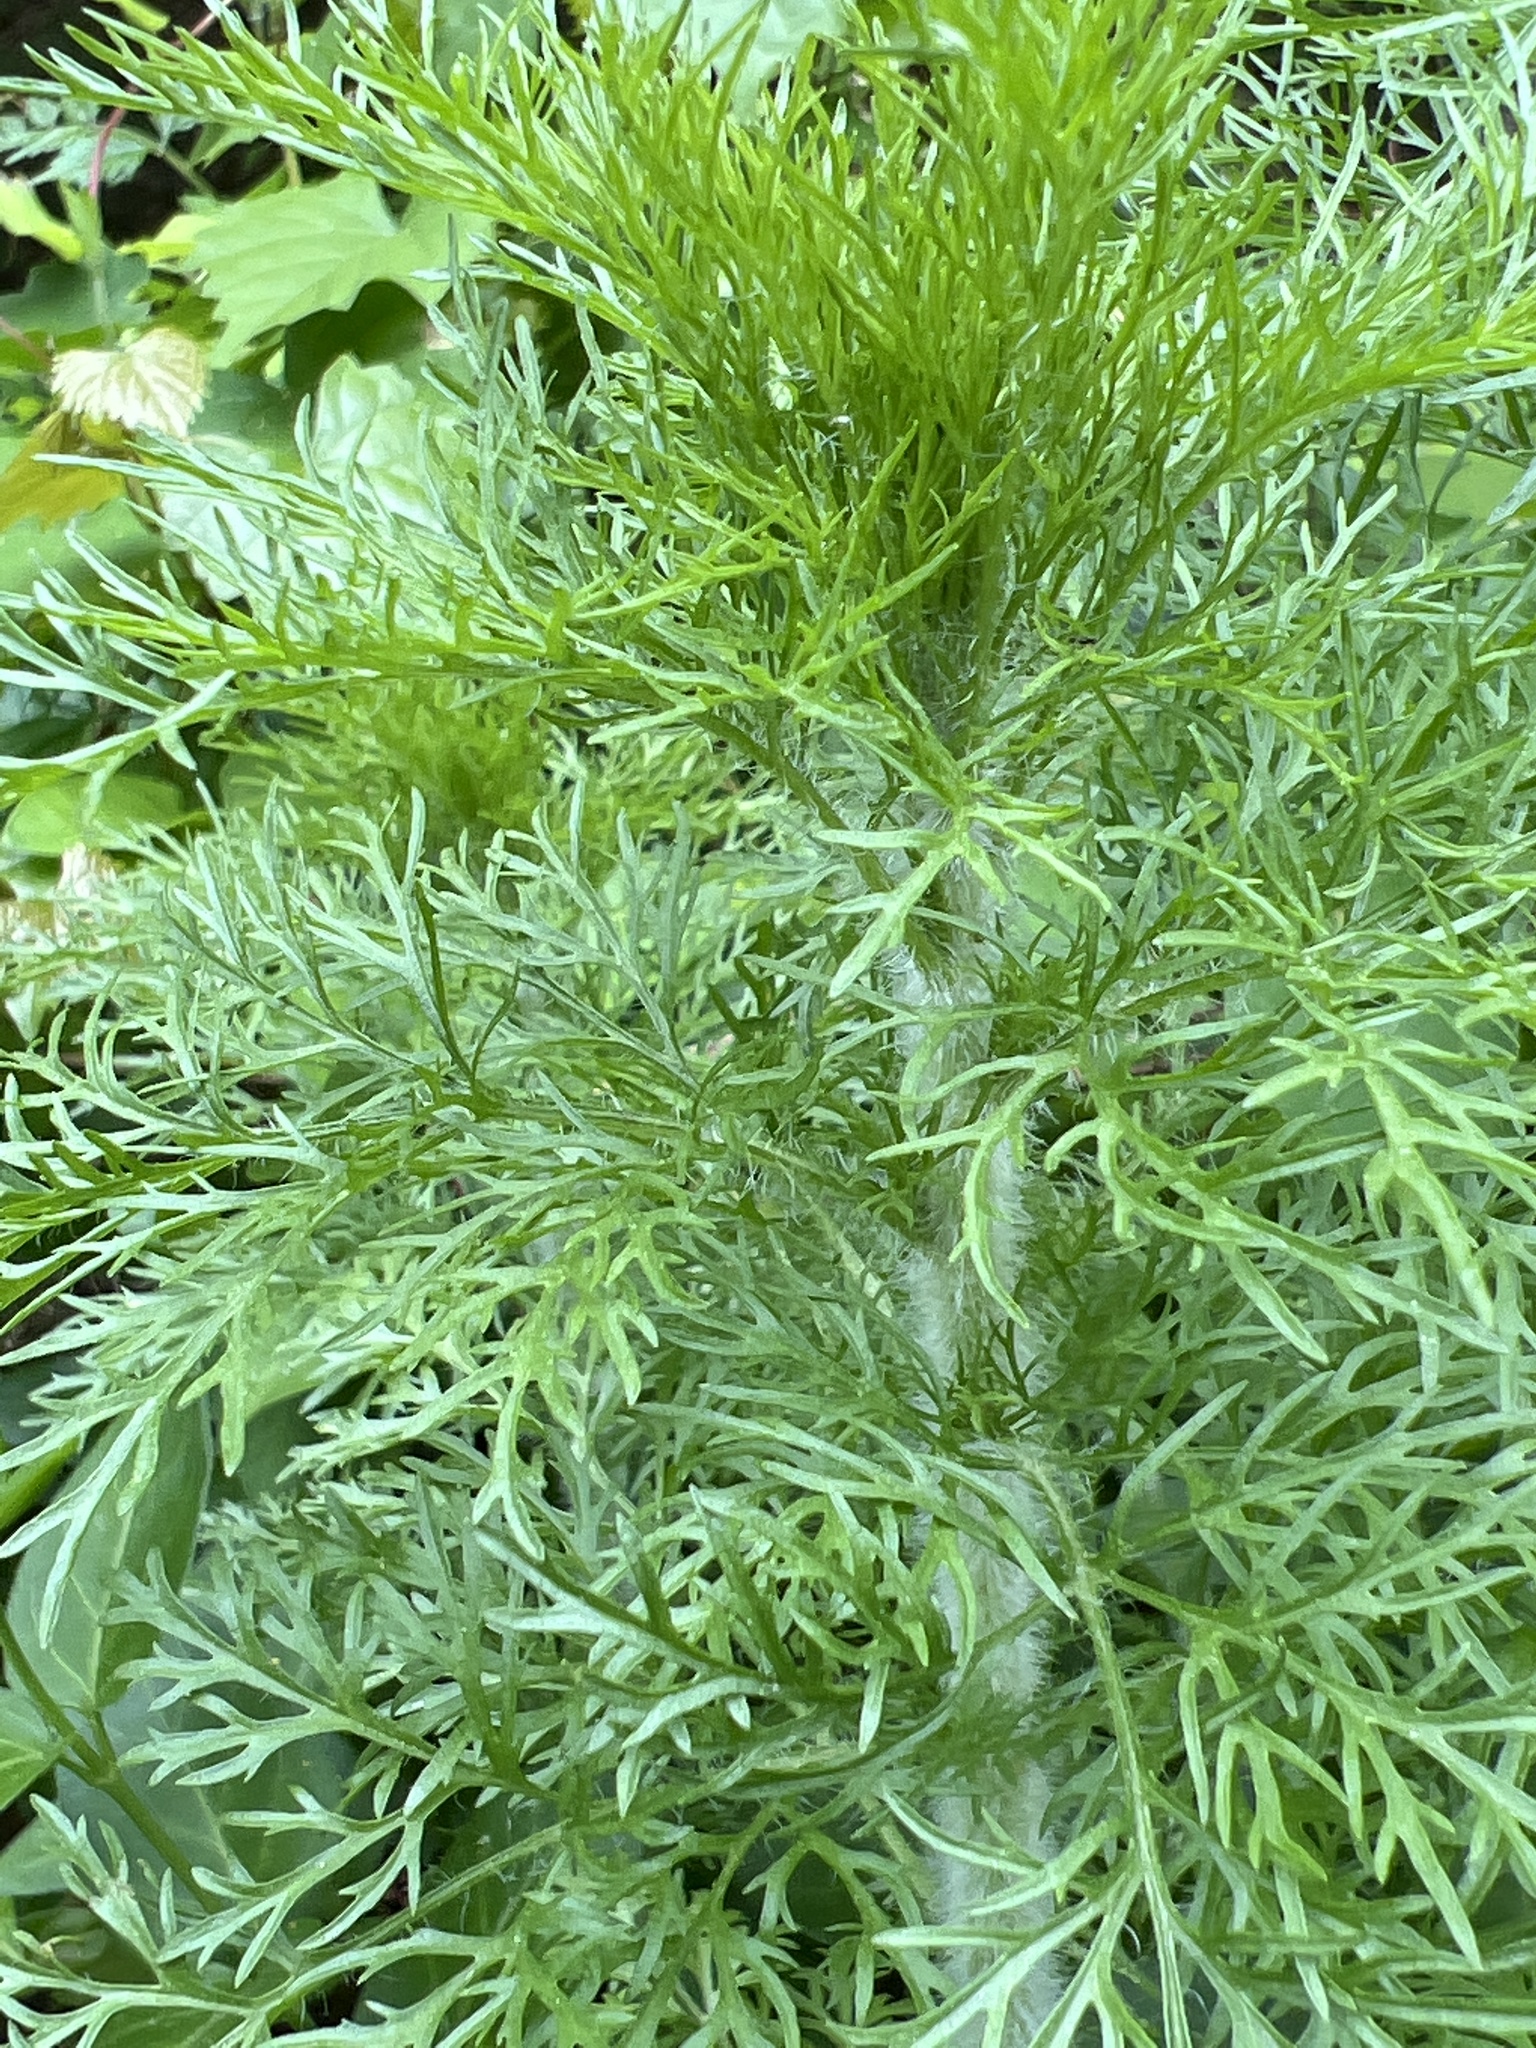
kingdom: Plantae
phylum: Tracheophyta
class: Magnoliopsida
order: Asterales
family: Asteraceae
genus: Eupatorium
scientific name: Eupatorium capillifolium
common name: Dog-fennel
